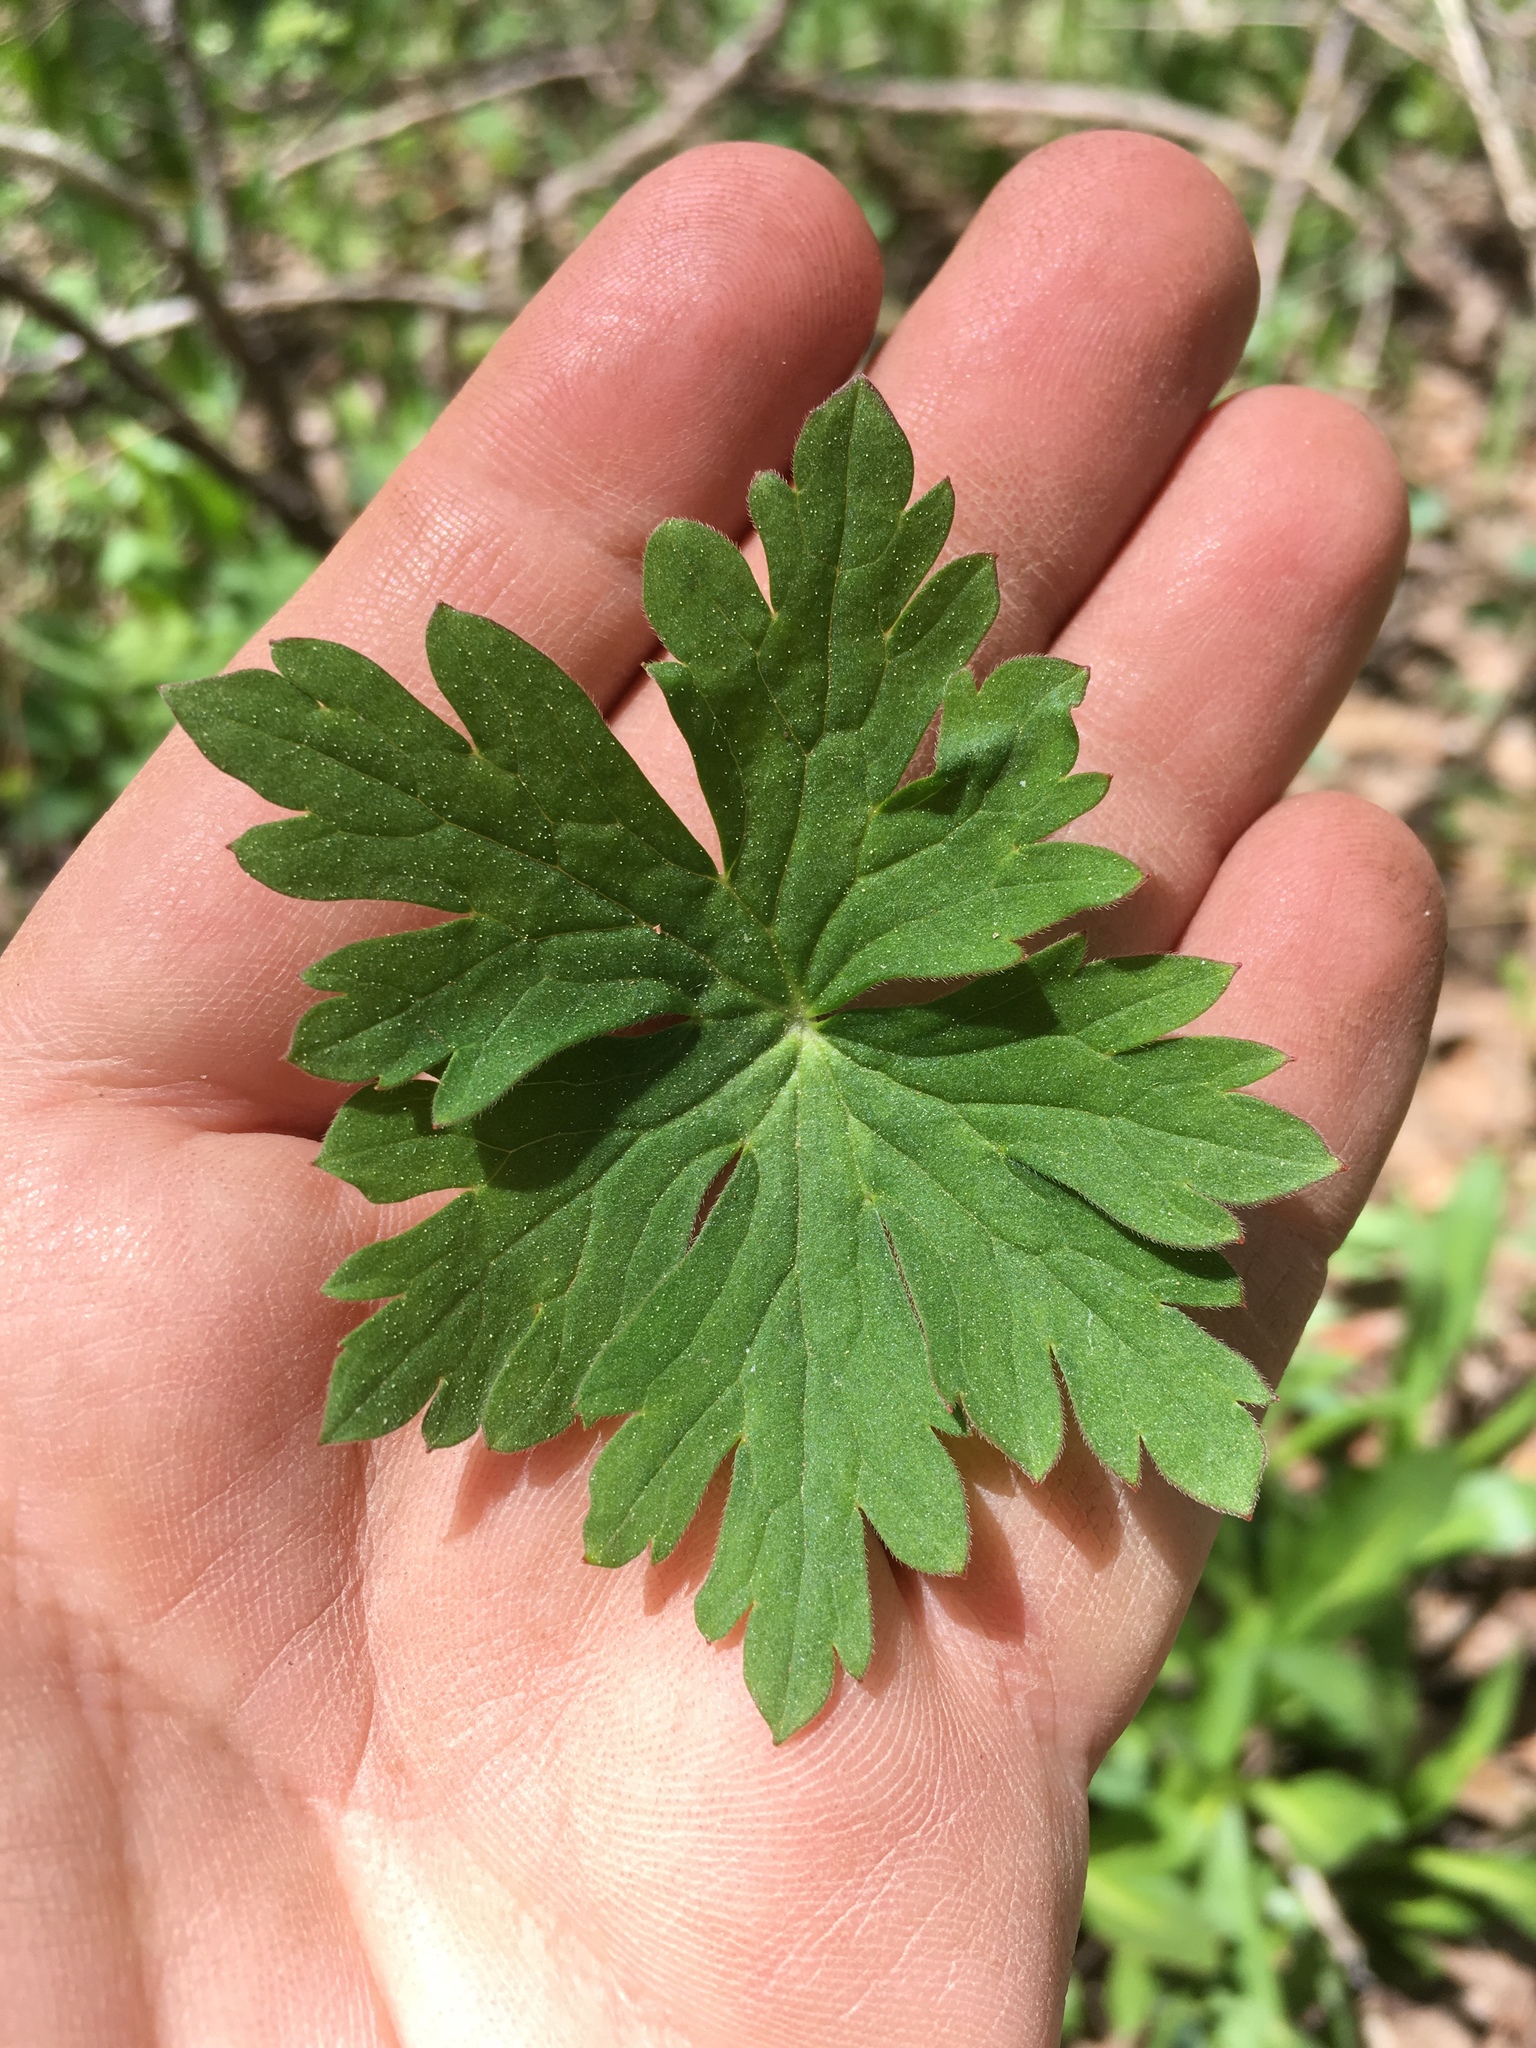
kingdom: Plantae
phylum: Tracheophyta
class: Magnoliopsida
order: Geraniales
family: Geraniaceae
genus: Geranium
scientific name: Geranium richardsonii
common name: Richardson's crane's-bill
